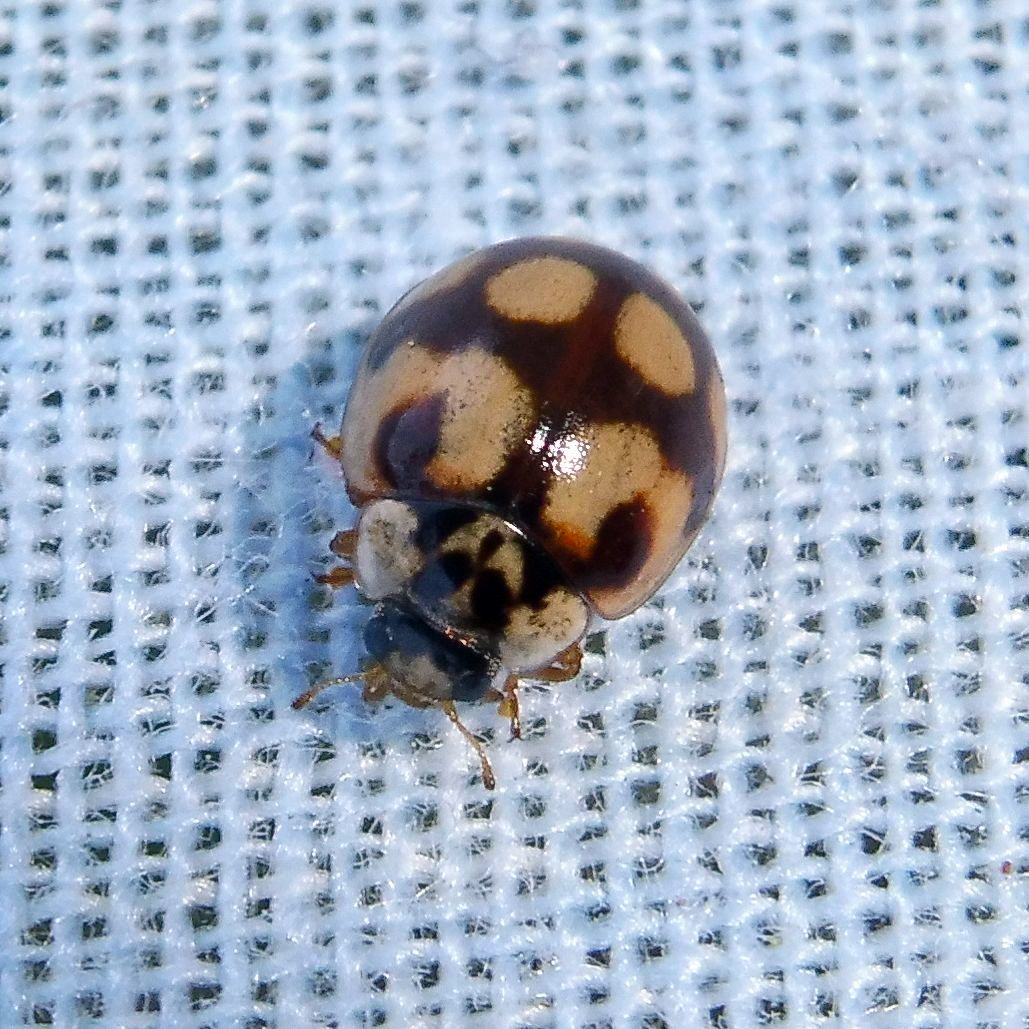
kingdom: Animalia
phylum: Arthropoda
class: Insecta
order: Coleoptera
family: Coccinellidae
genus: Adalia
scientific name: Adalia decempunctata
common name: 10-spot ladybird
